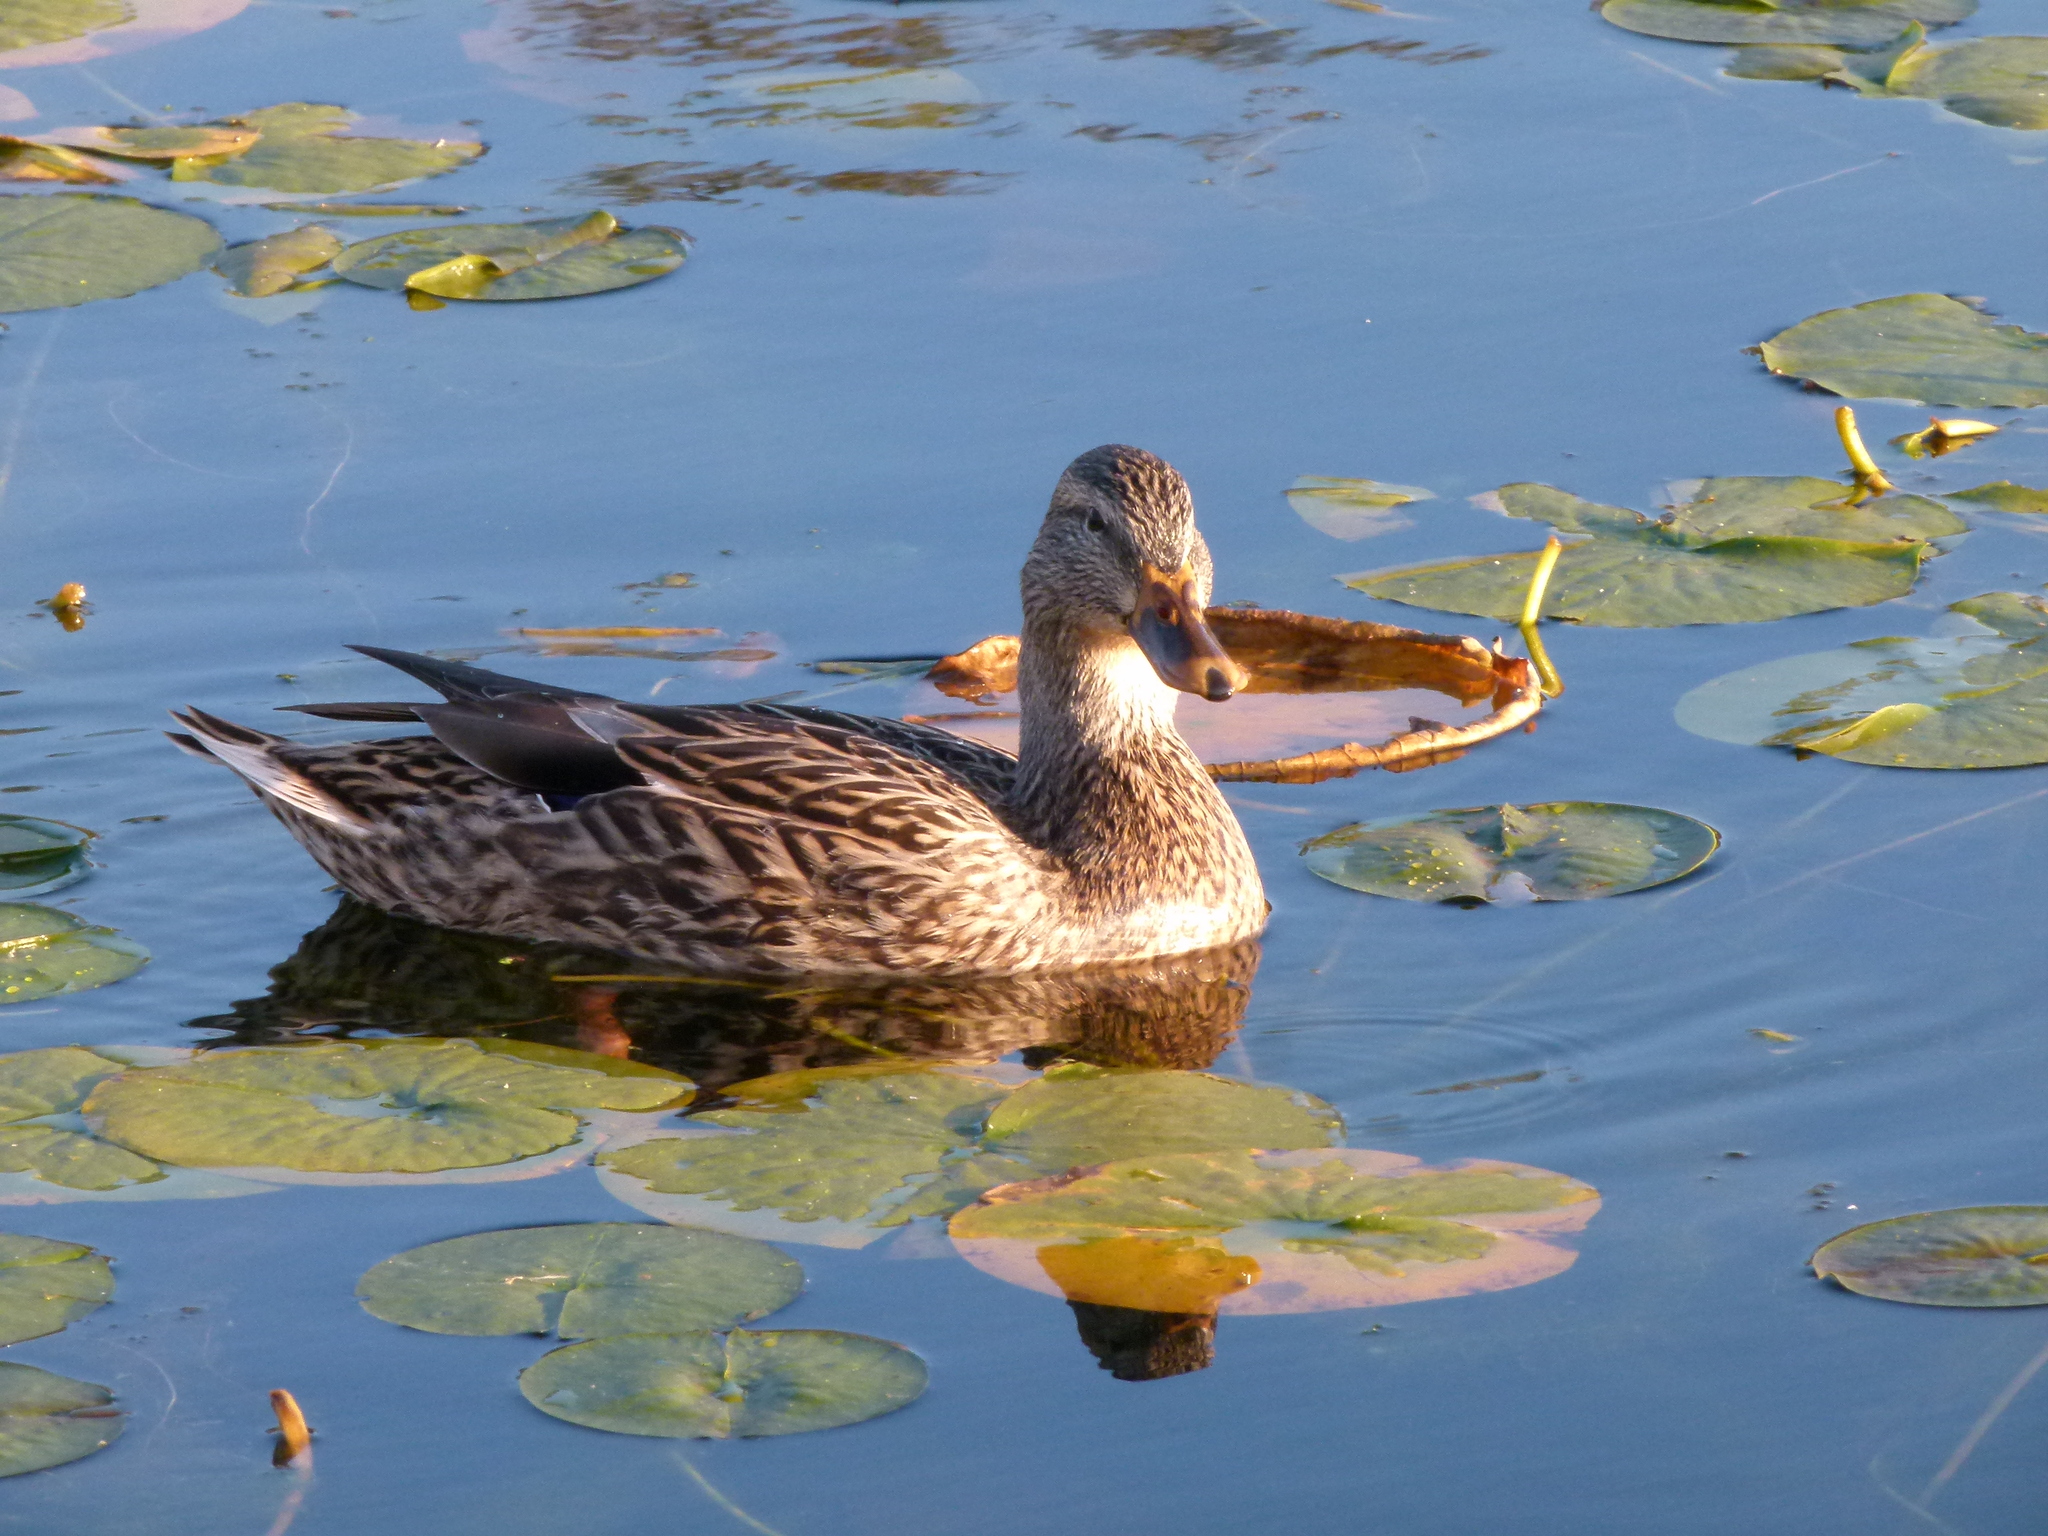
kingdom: Animalia
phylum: Chordata
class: Aves
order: Anseriformes
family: Anatidae
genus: Anas
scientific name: Anas platyrhynchos
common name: Mallard
